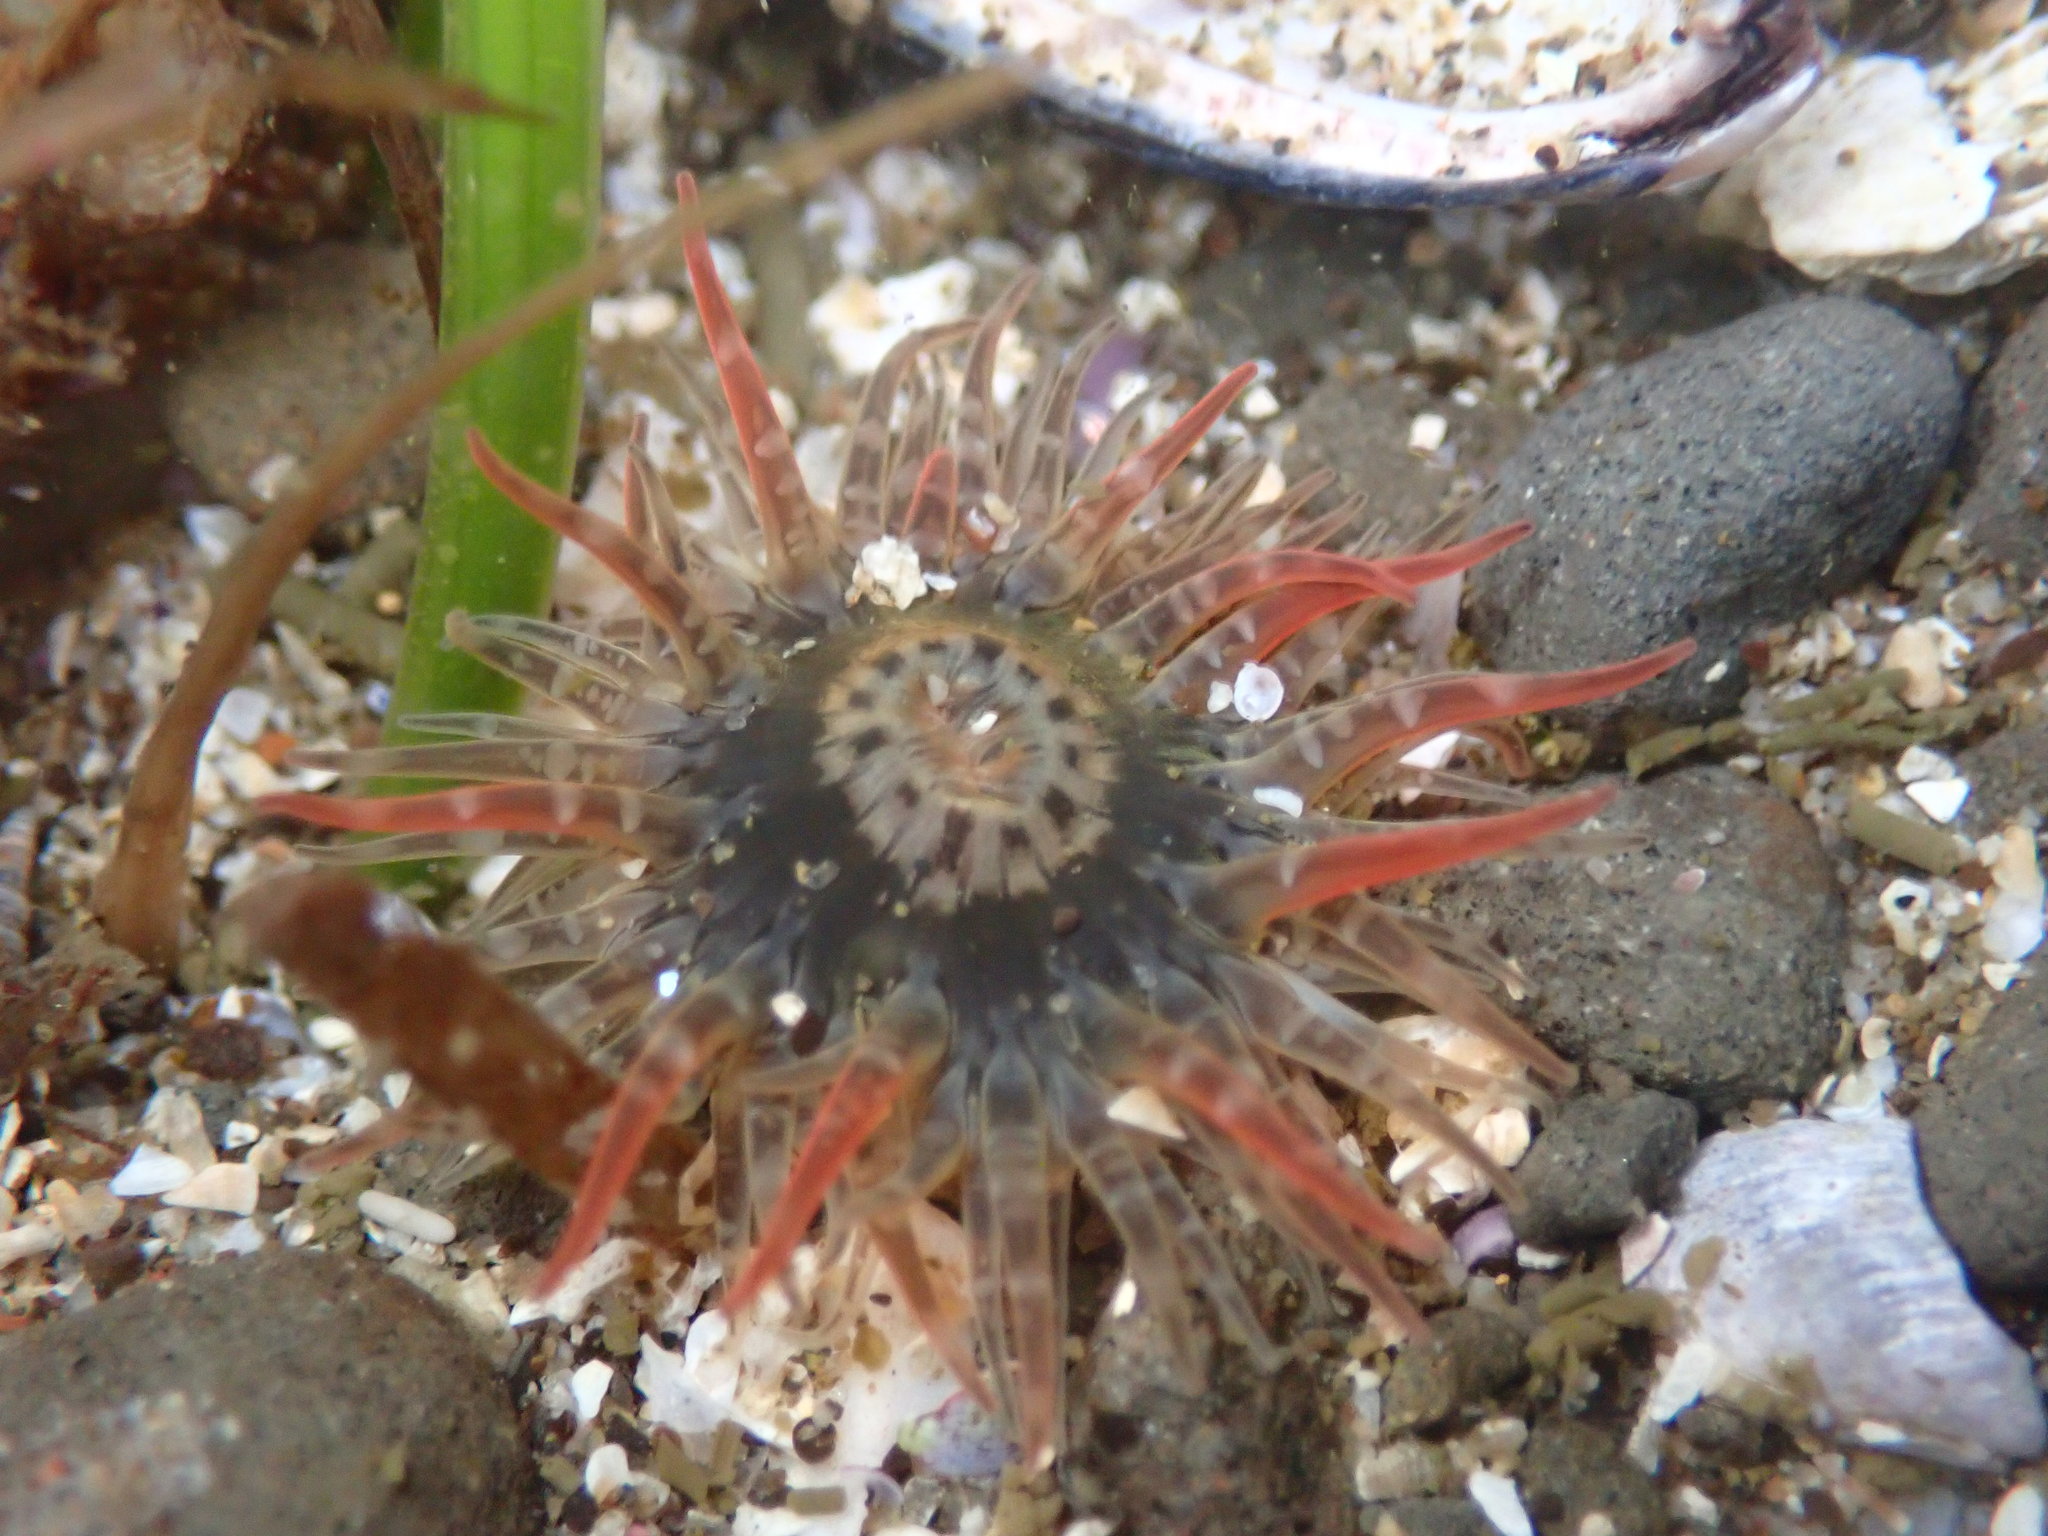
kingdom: Animalia
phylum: Cnidaria
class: Anthozoa
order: Actiniaria
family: Actiniidae
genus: Anthopleura
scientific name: Anthopleura artemisia
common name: Buried sea anemone
